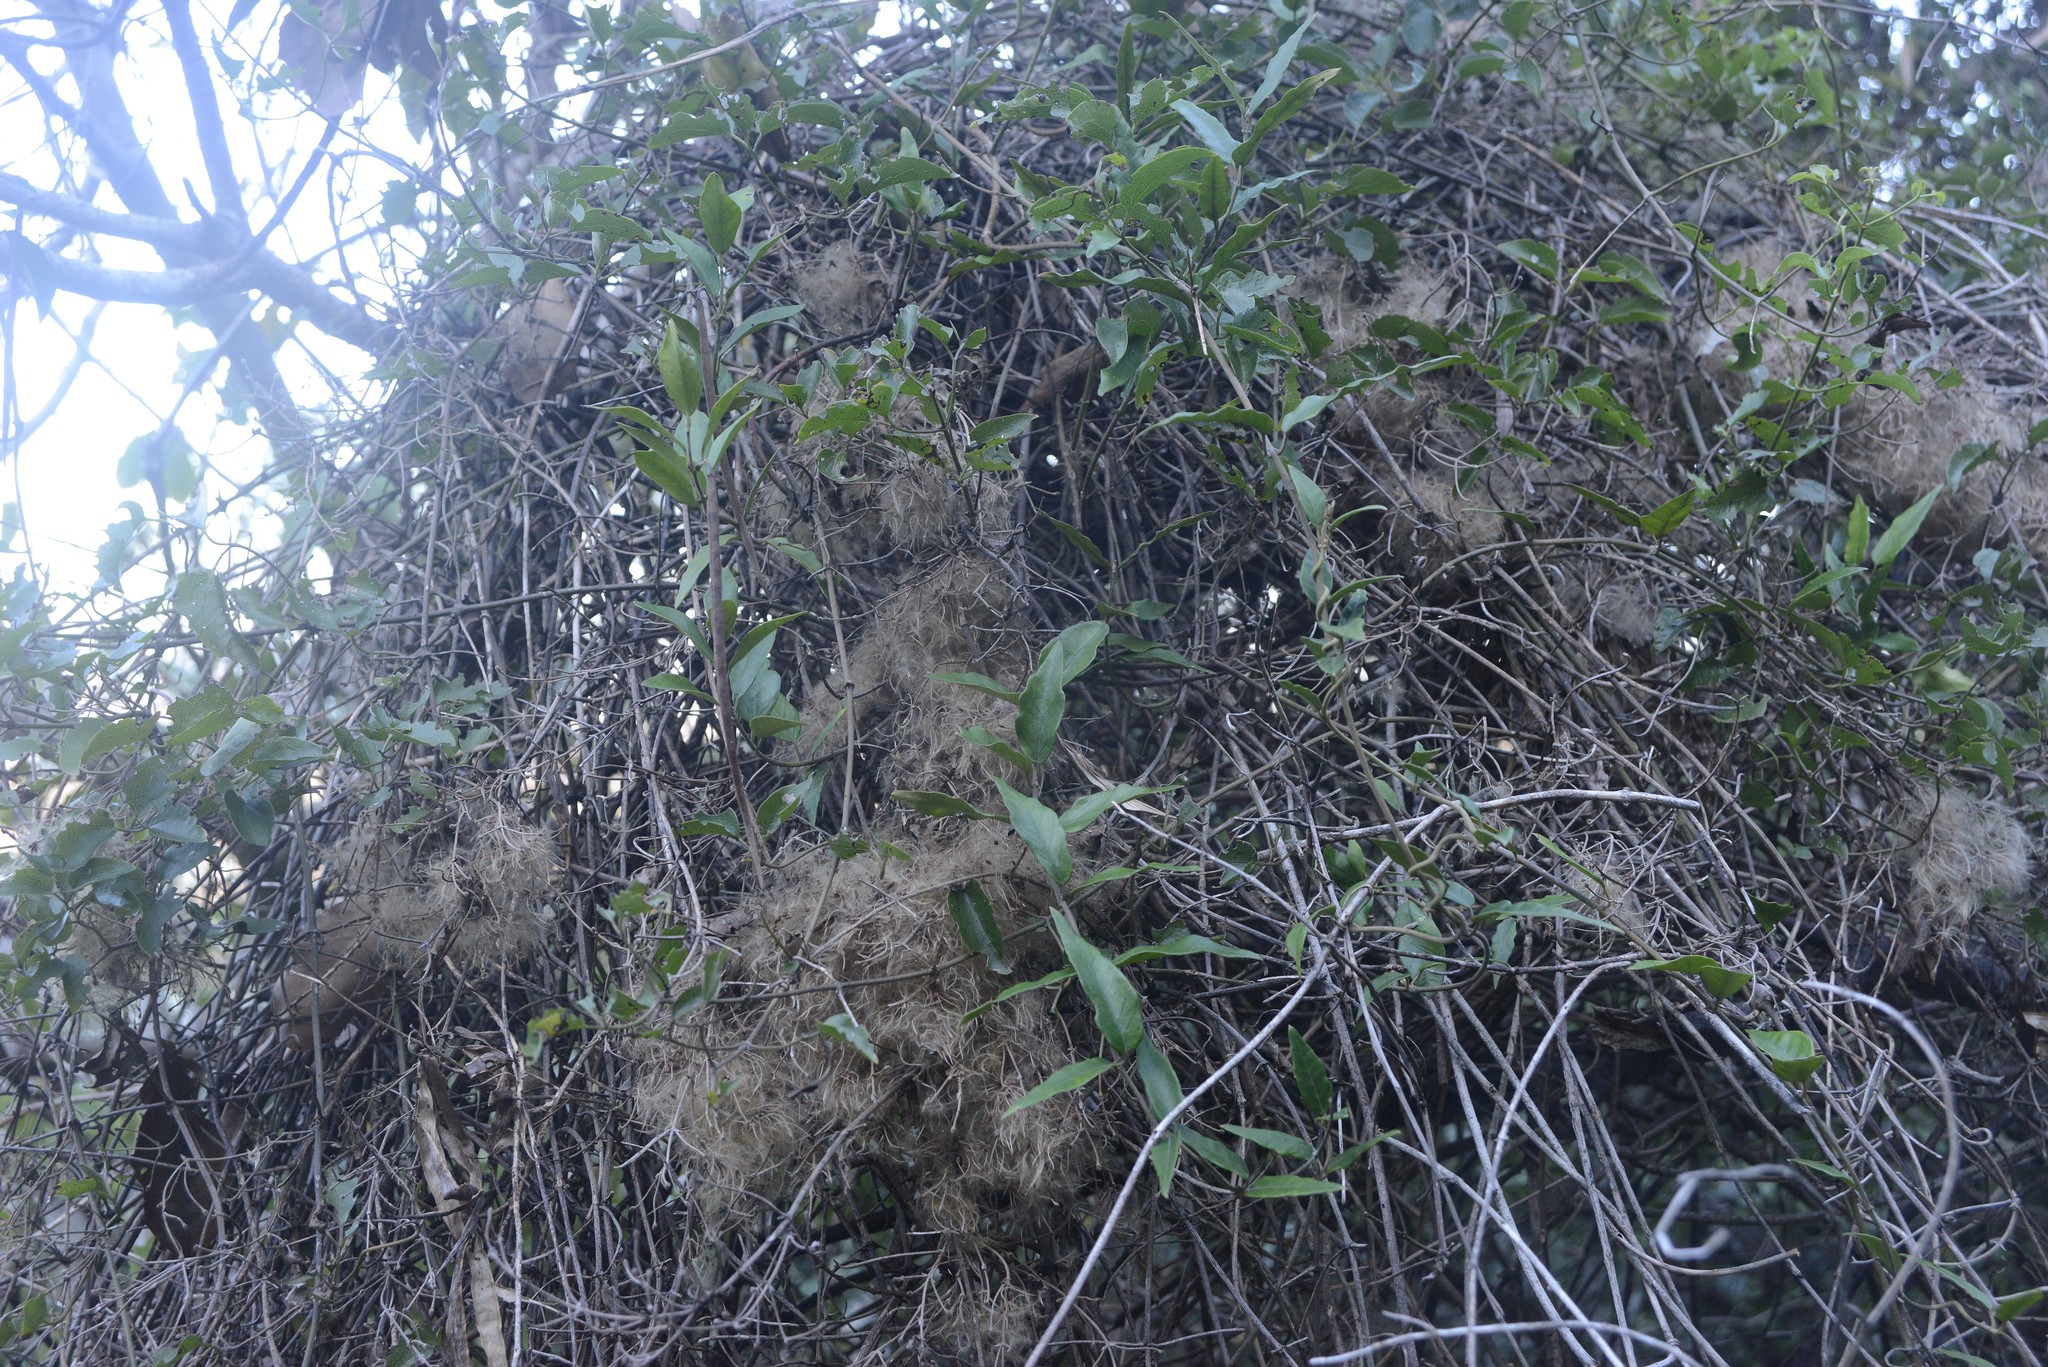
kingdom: Plantae
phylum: Tracheophyta
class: Magnoliopsida
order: Ranunculales
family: Ranunculaceae
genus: Clematis
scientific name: Clematis foetida
